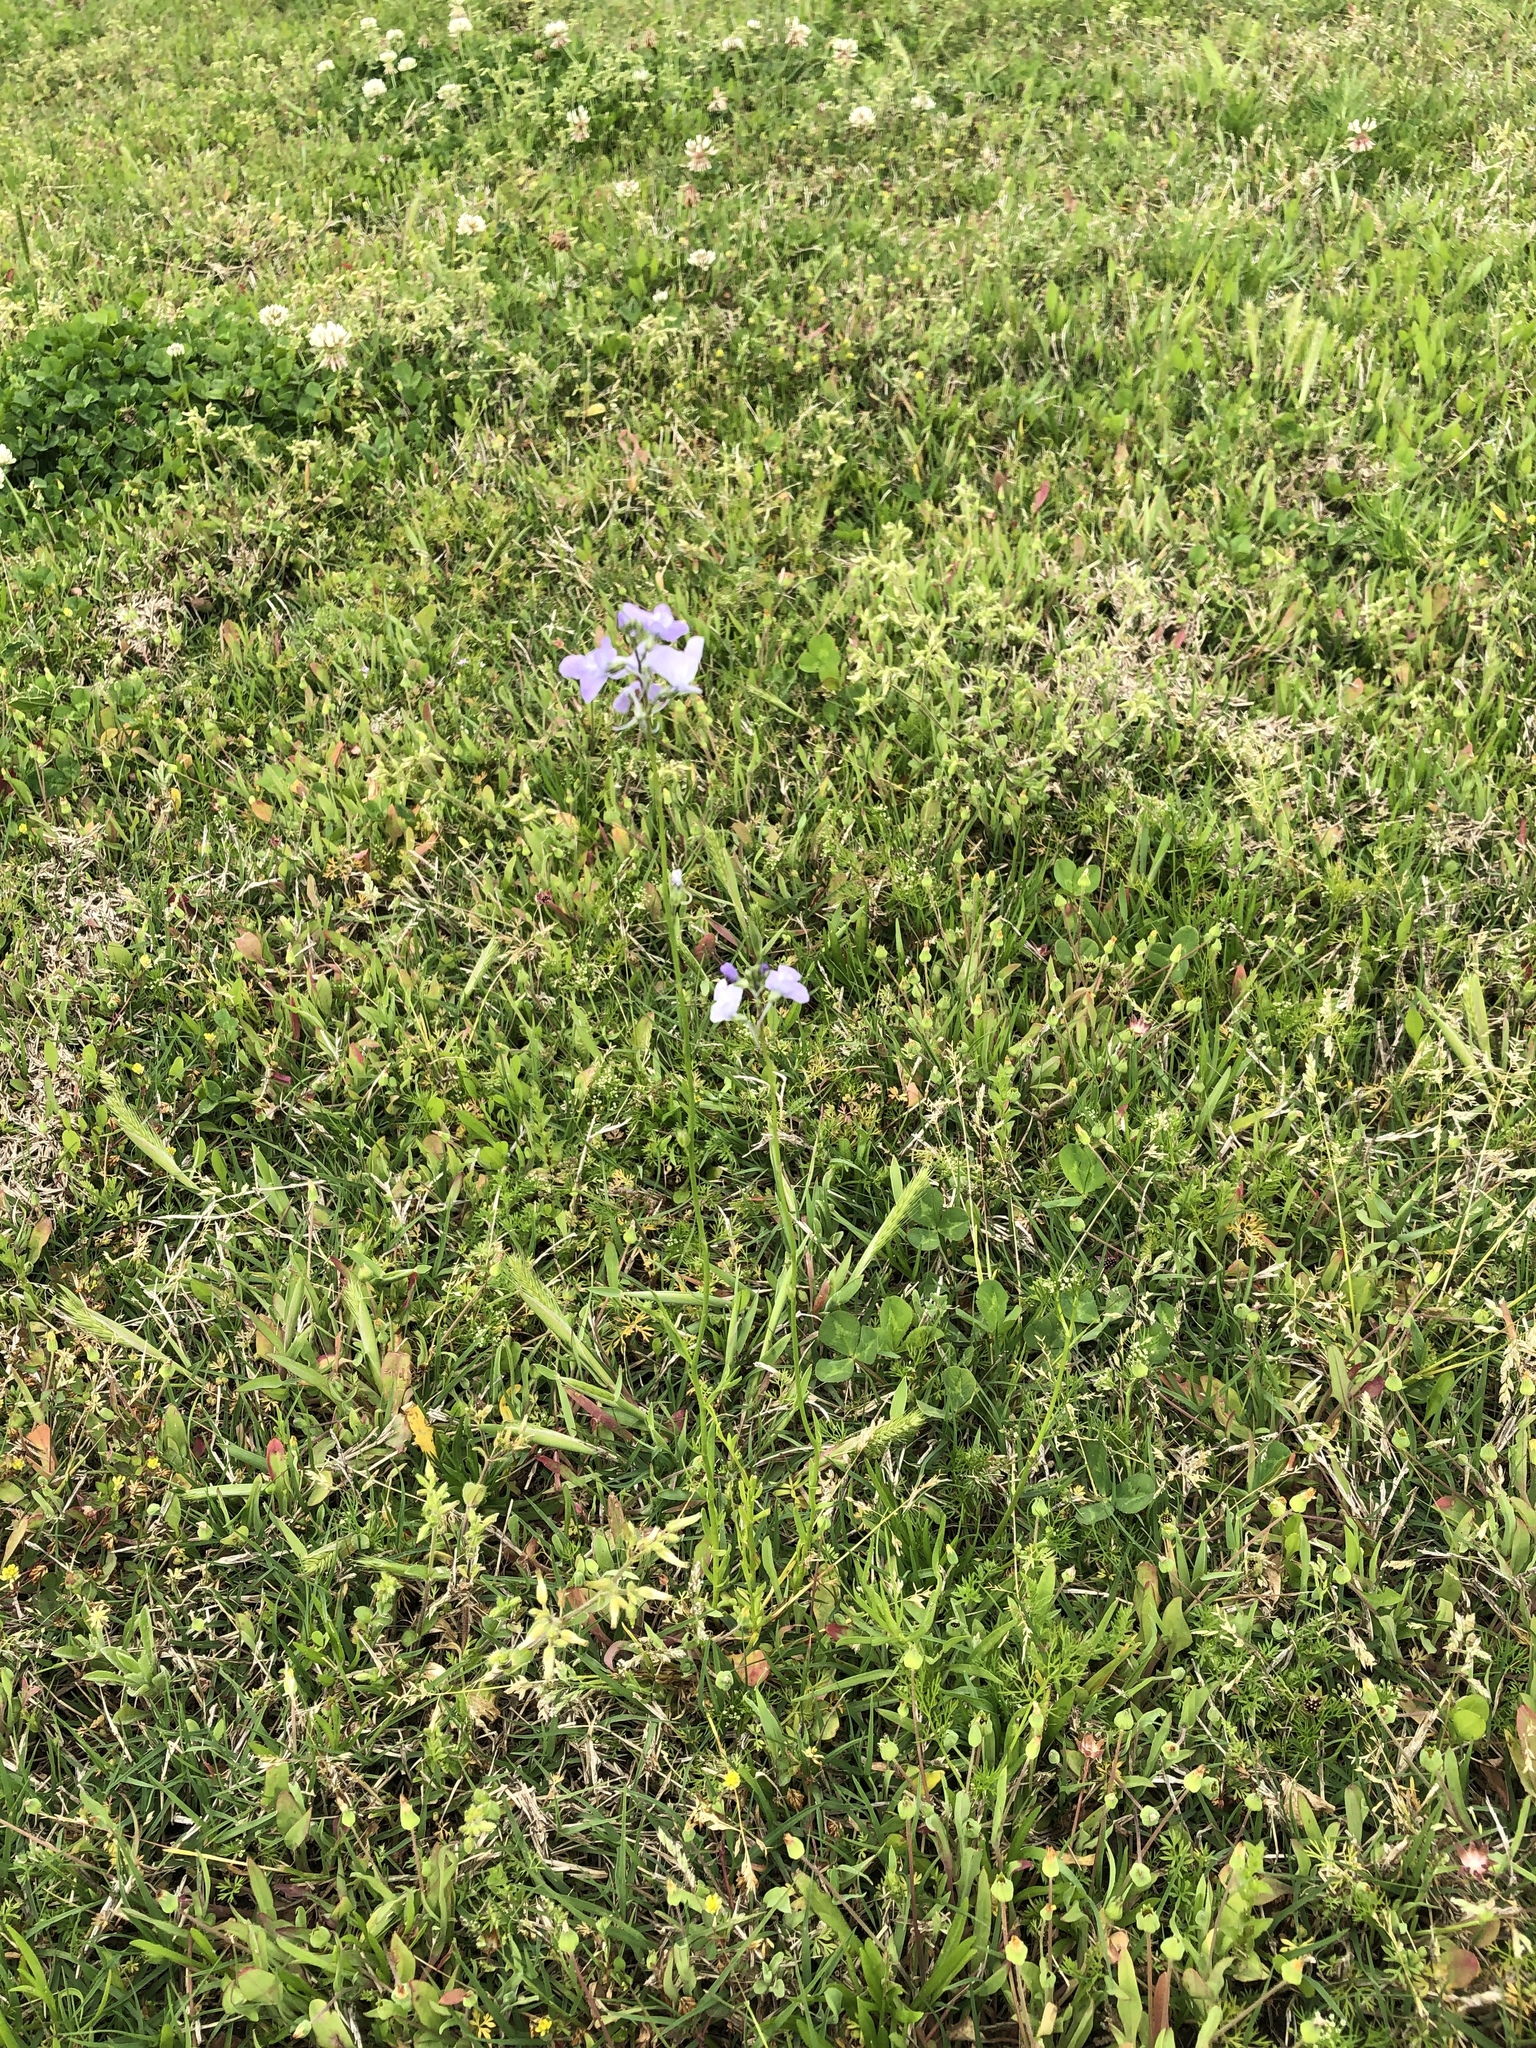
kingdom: Plantae
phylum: Tracheophyta
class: Magnoliopsida
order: Lamiales
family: Plantaginaceae
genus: Nuttallanthus
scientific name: Nuttallanthus texanus
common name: Texas toadflax
